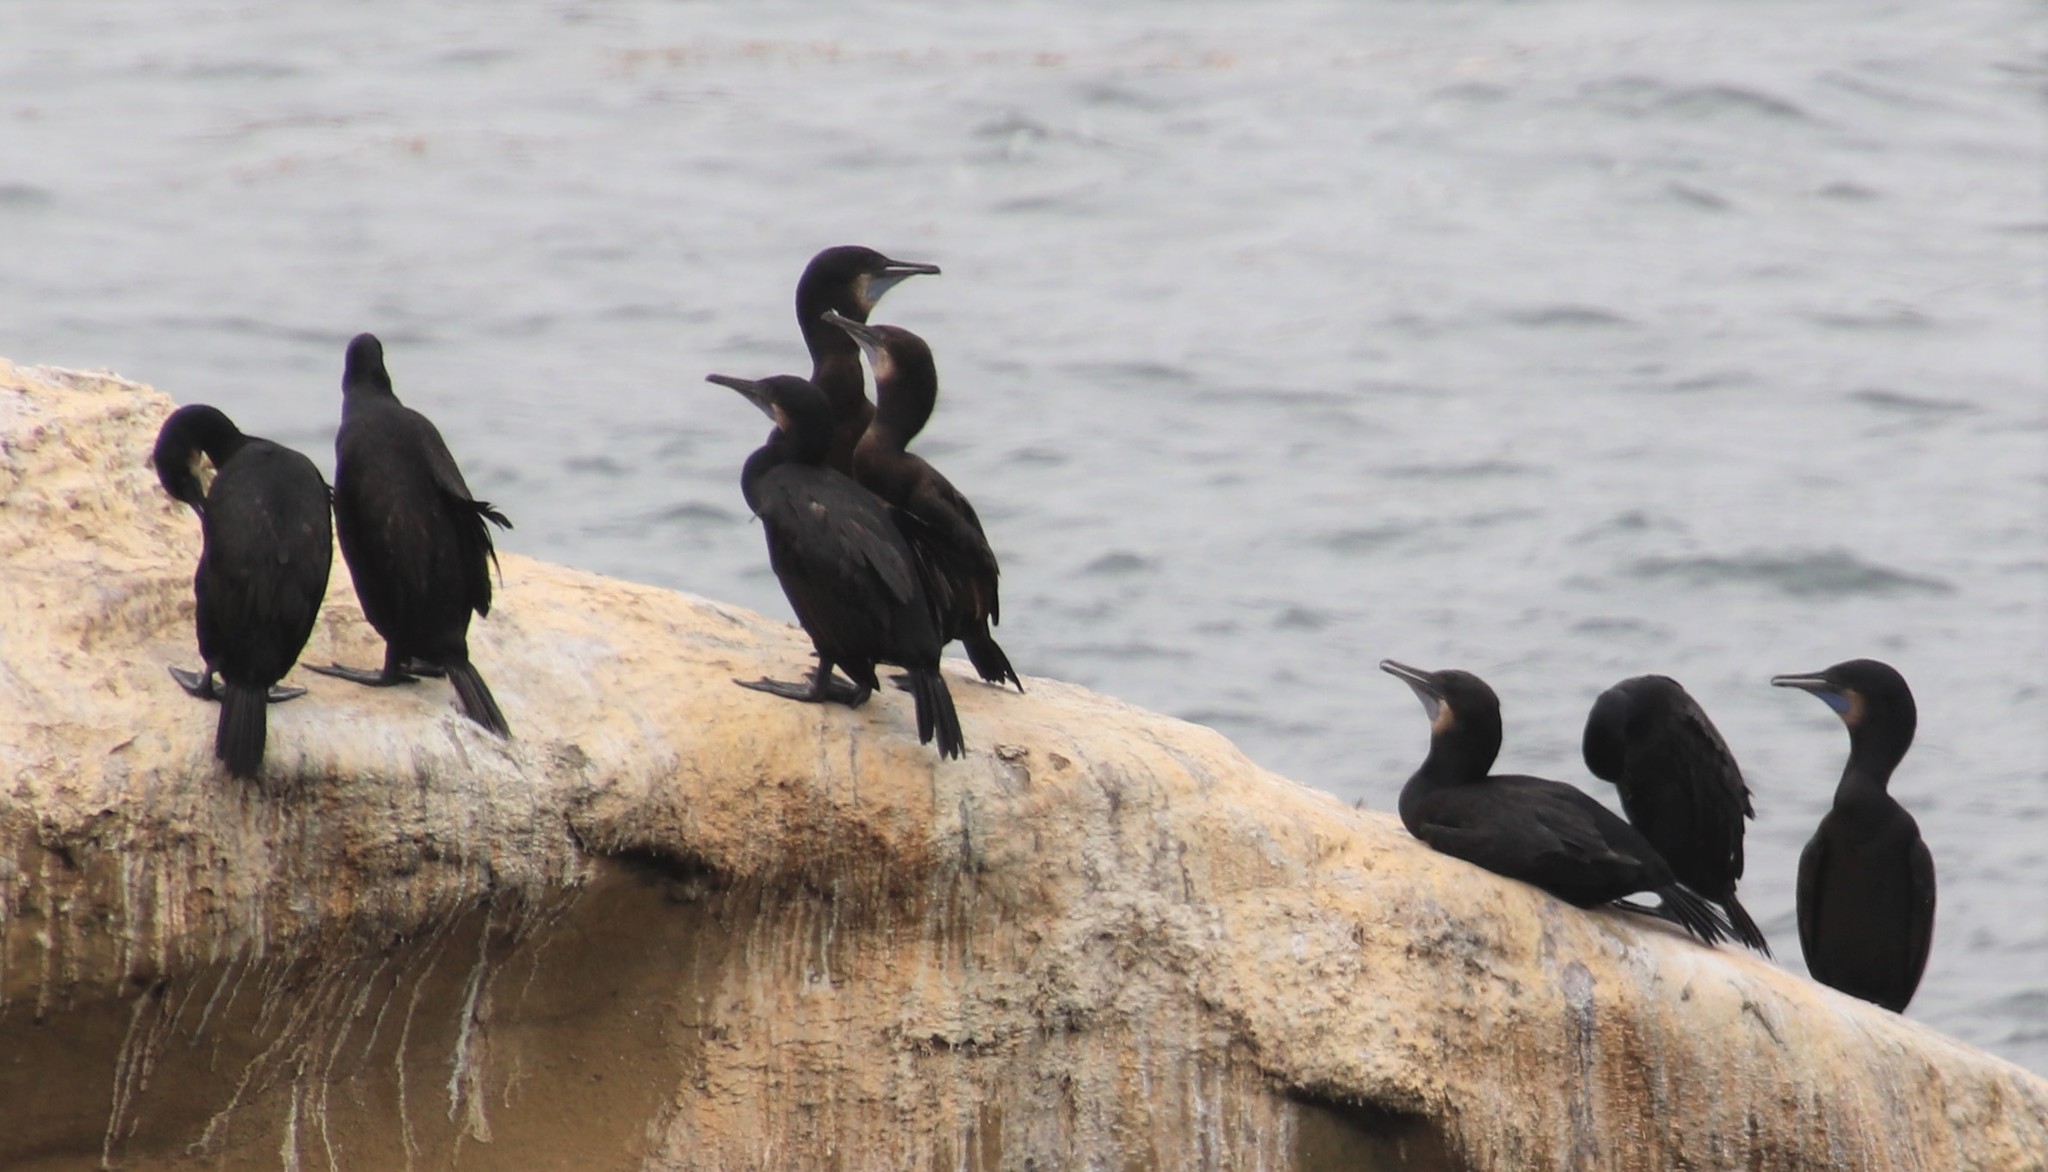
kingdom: Animalia
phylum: Chordata
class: Aves
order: Suliformes
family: Phalacrocoracidae
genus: Urile
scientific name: Urile penicillatus
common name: Brandt's cormorant
